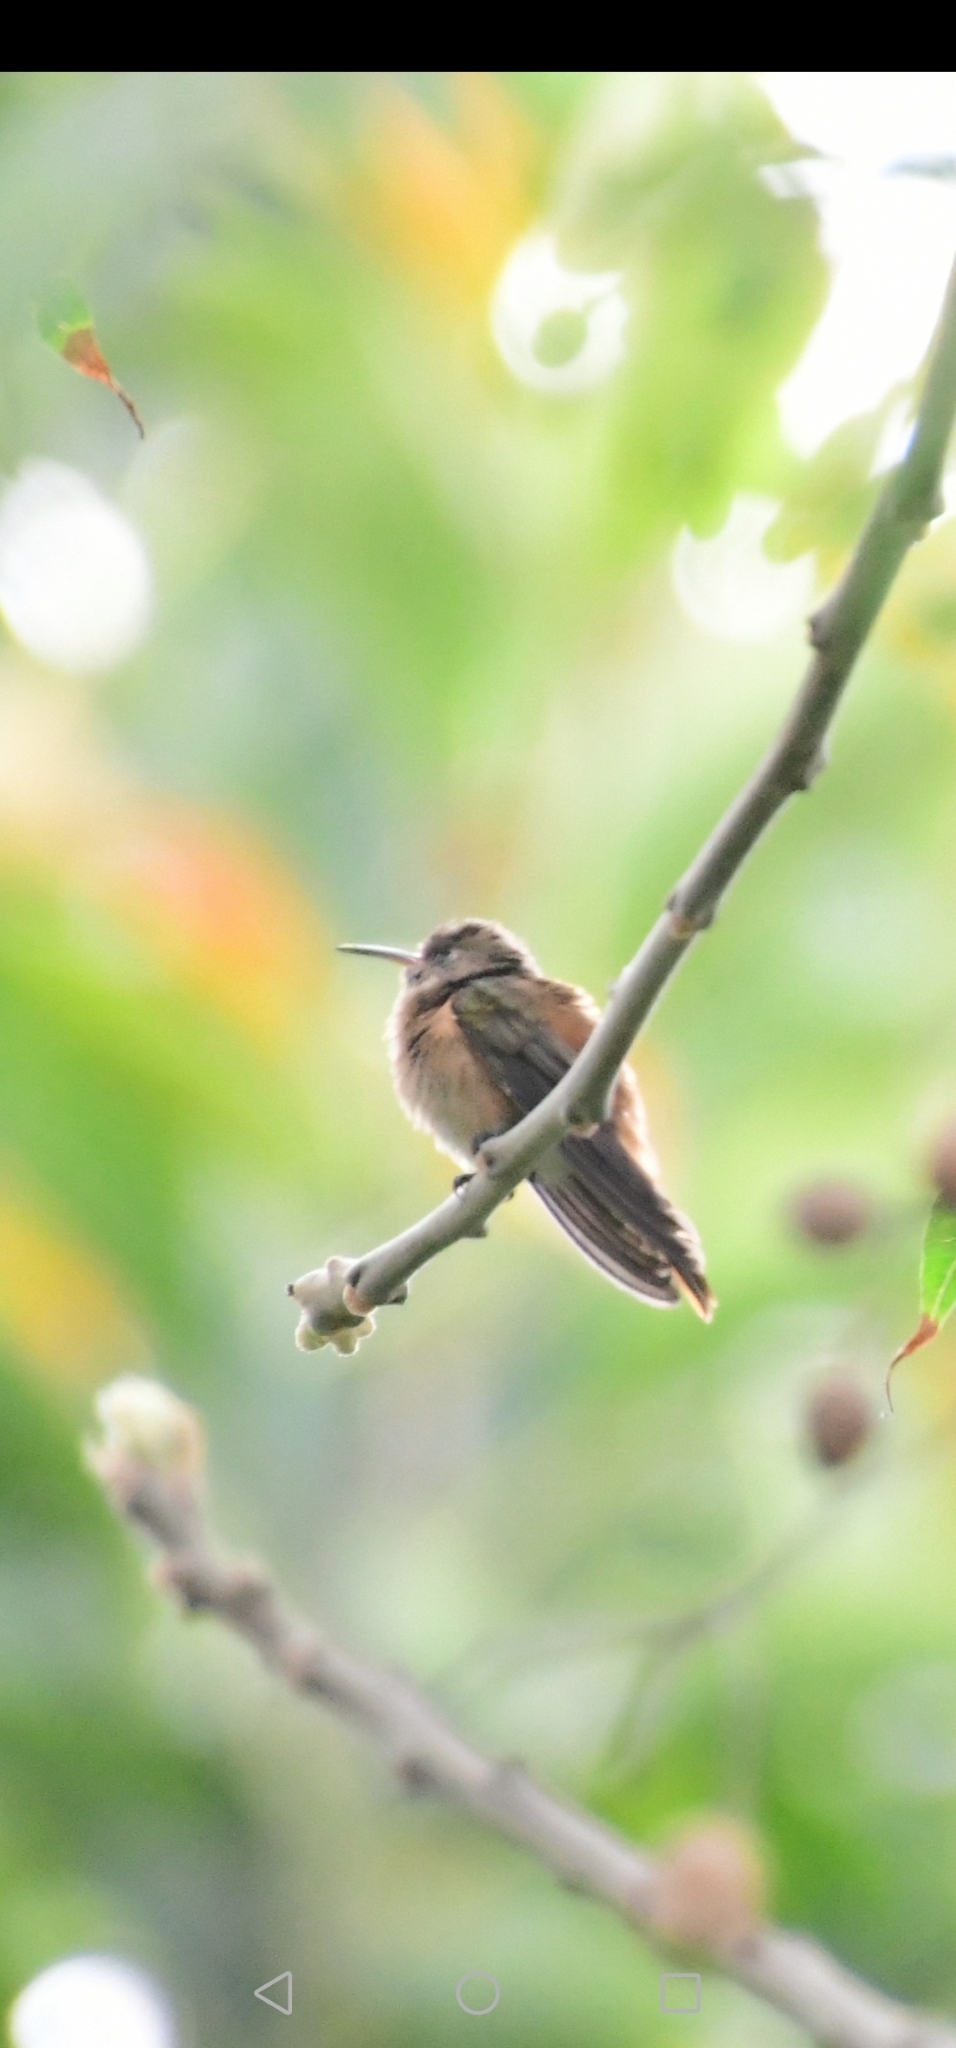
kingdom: Animalia
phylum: Chordata
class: Aves
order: Apodiformes
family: Trochilidae
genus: Amazilis
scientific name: Amazilis amazilia
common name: Amazilia hummingbird
